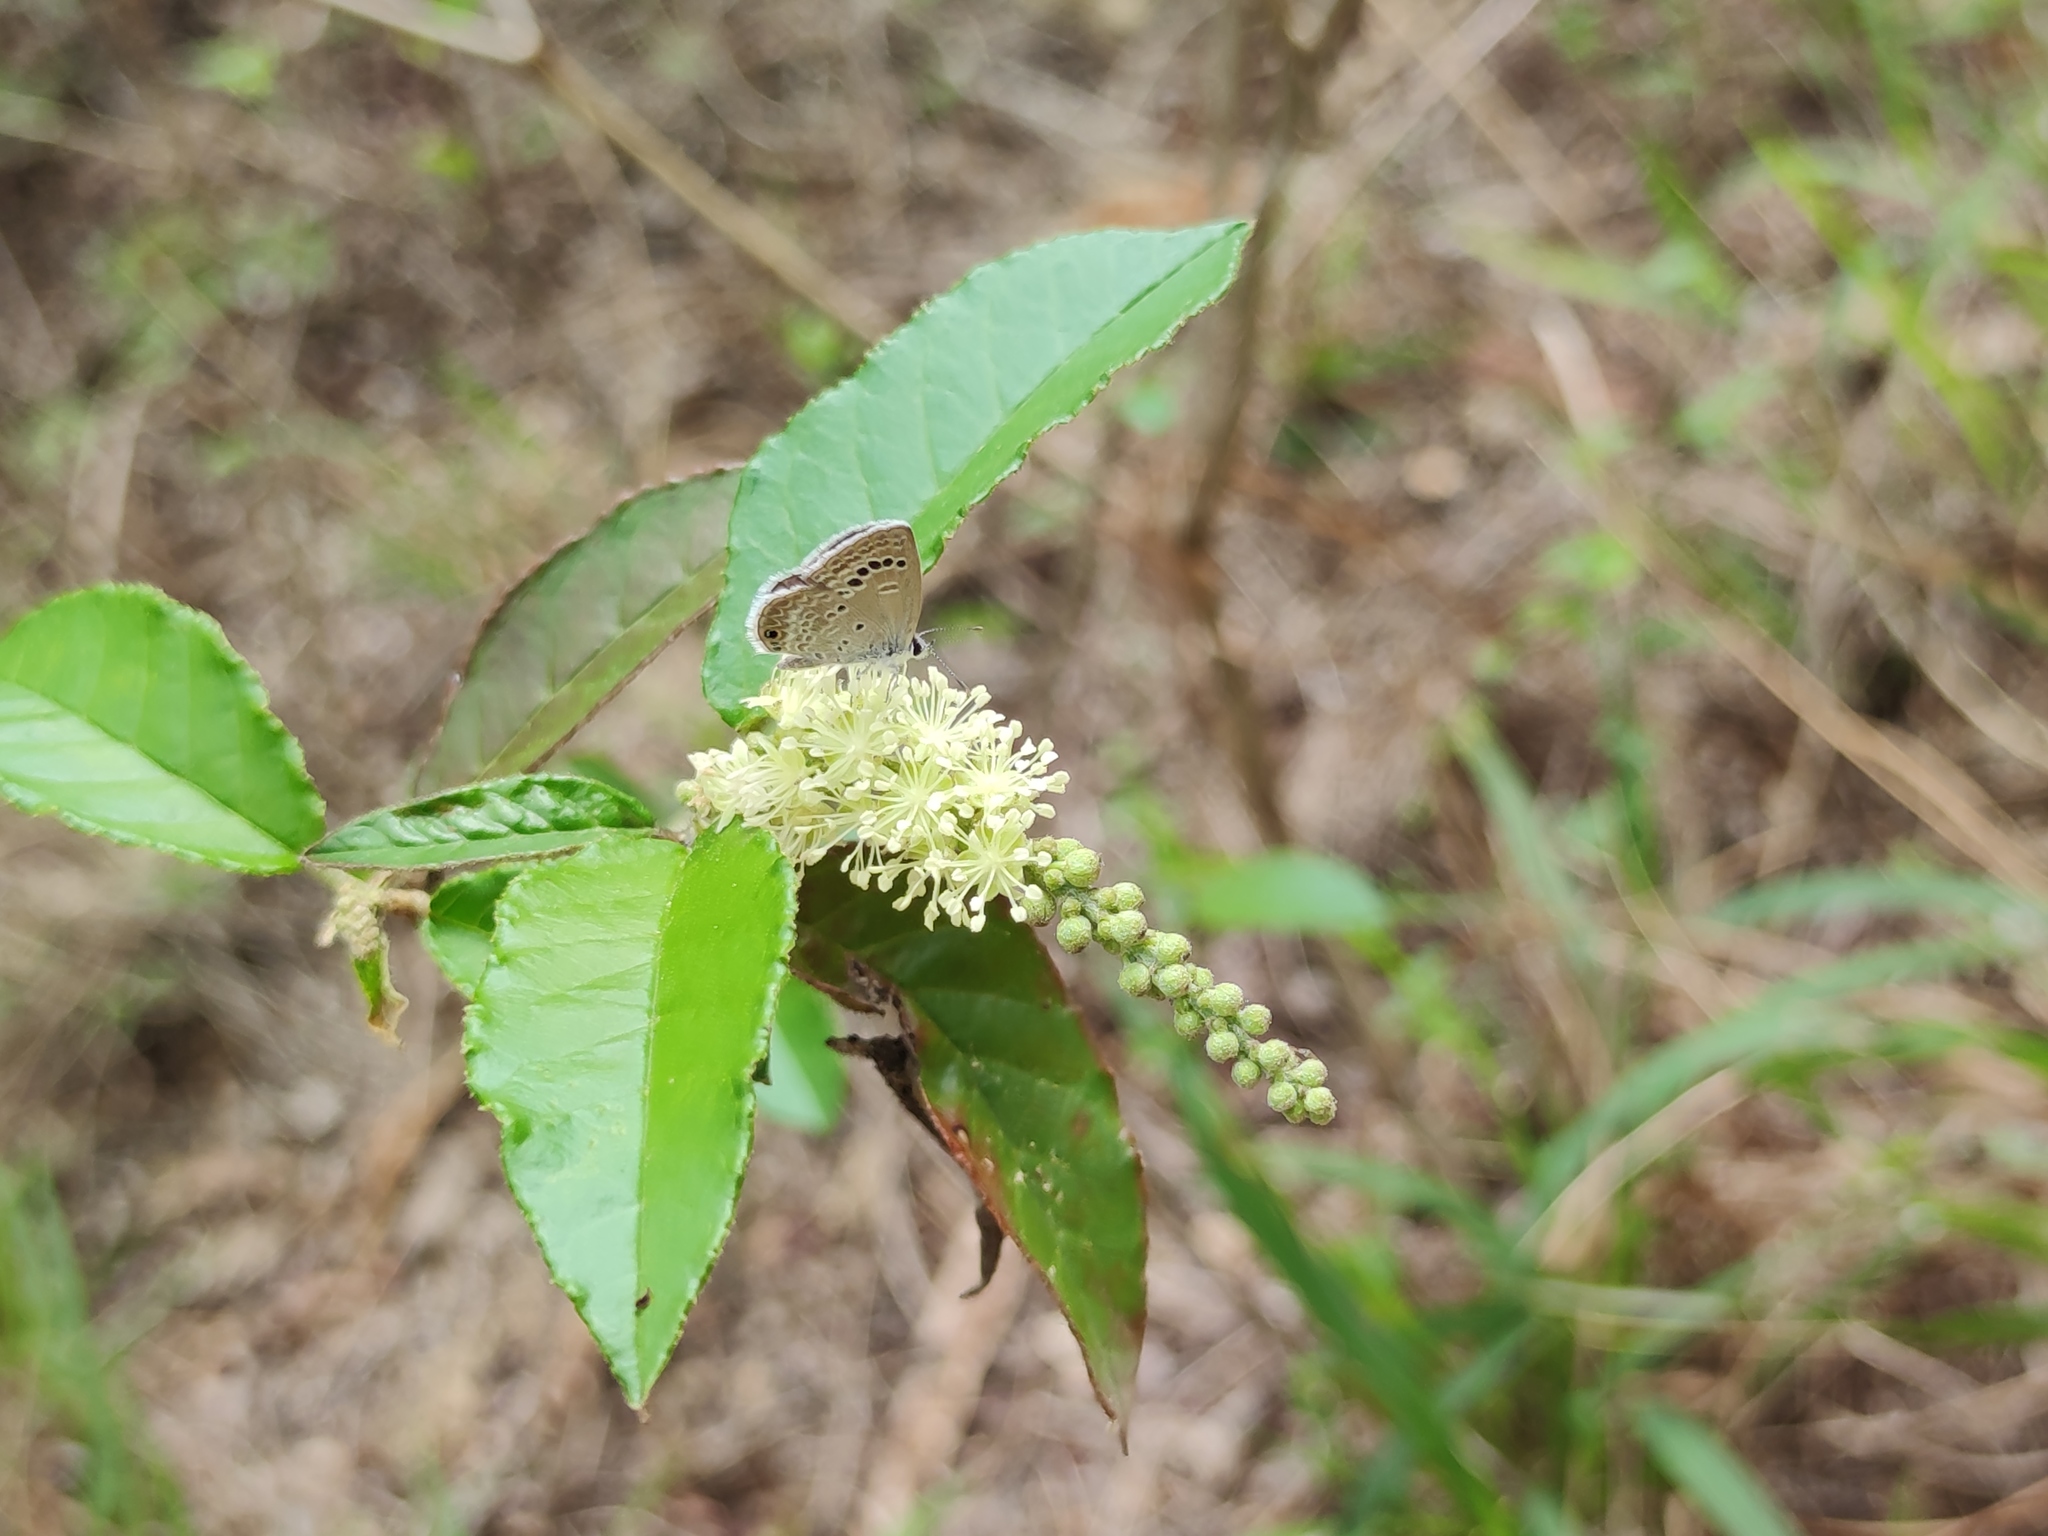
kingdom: Animalia
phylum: Arthropoda
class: Insecta
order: Lepidoptera
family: Lycaenidae
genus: Echinargus
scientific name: Echinargus isola
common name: Reakirt's blue
